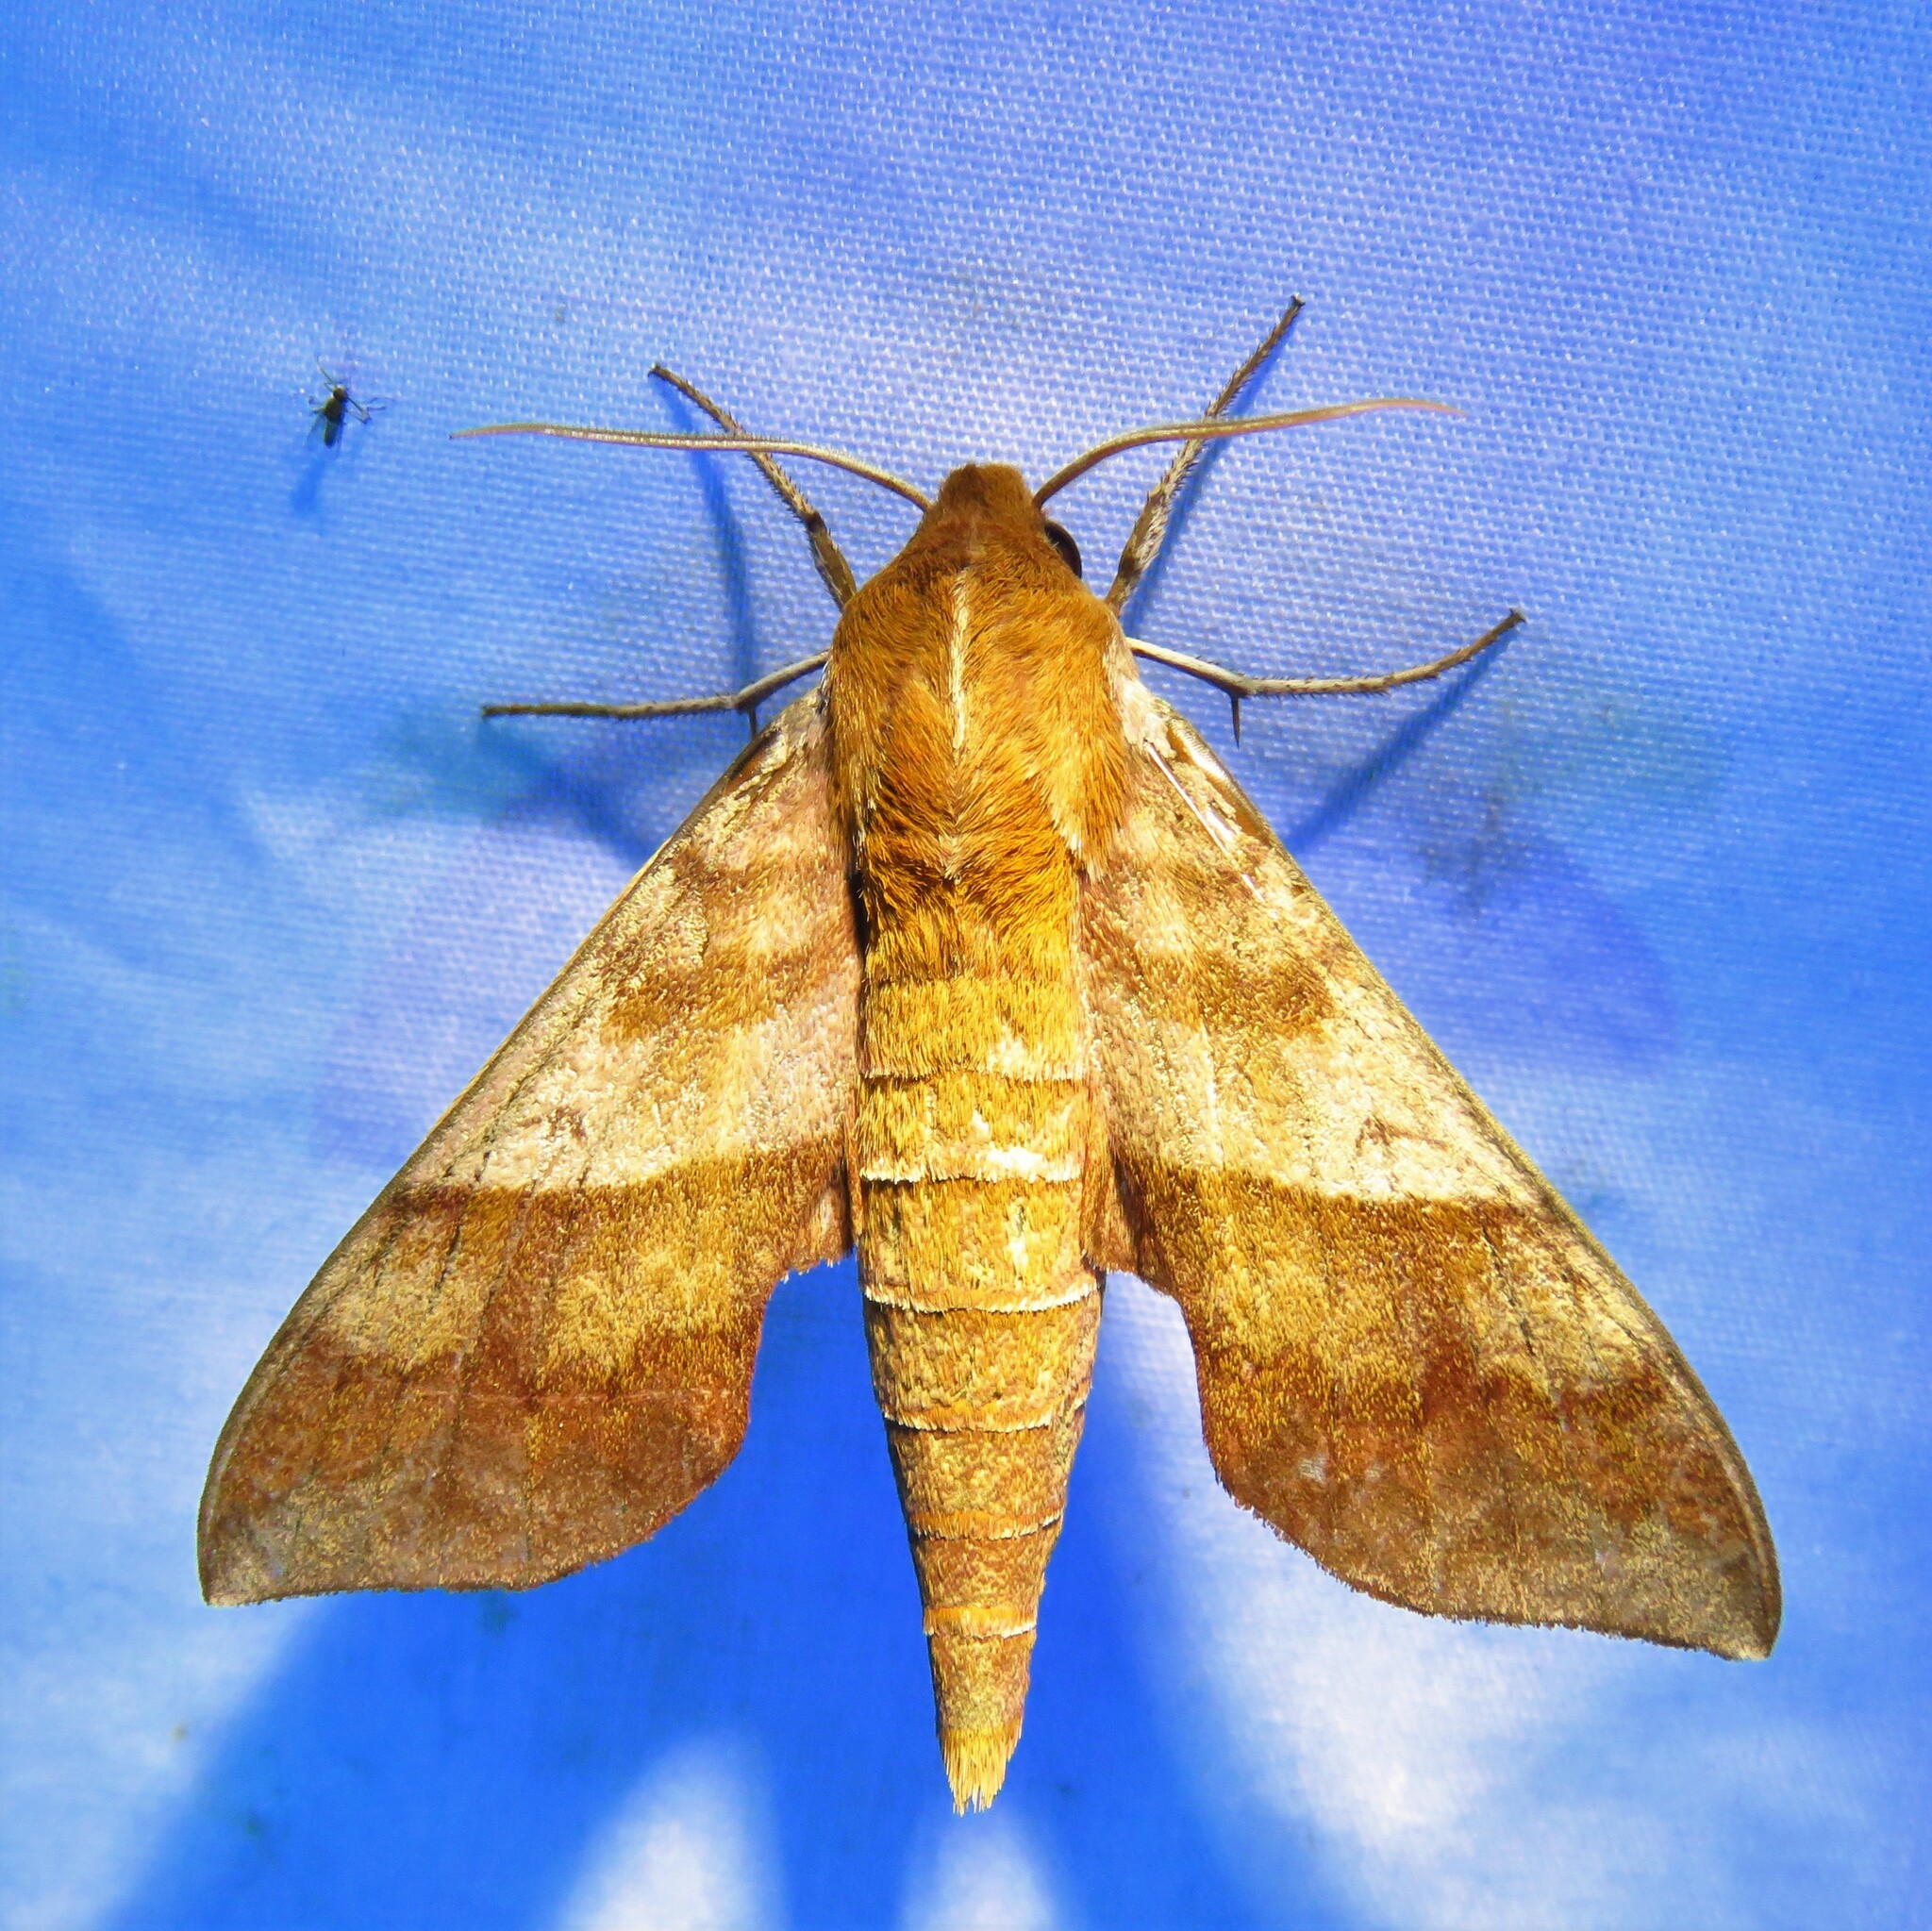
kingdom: Animalia
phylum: Arthropoda
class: Insecta
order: Lepidoptera
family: Sphingidae
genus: Darapsa
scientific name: Darapsa choerilus
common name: Azalea sphinx
